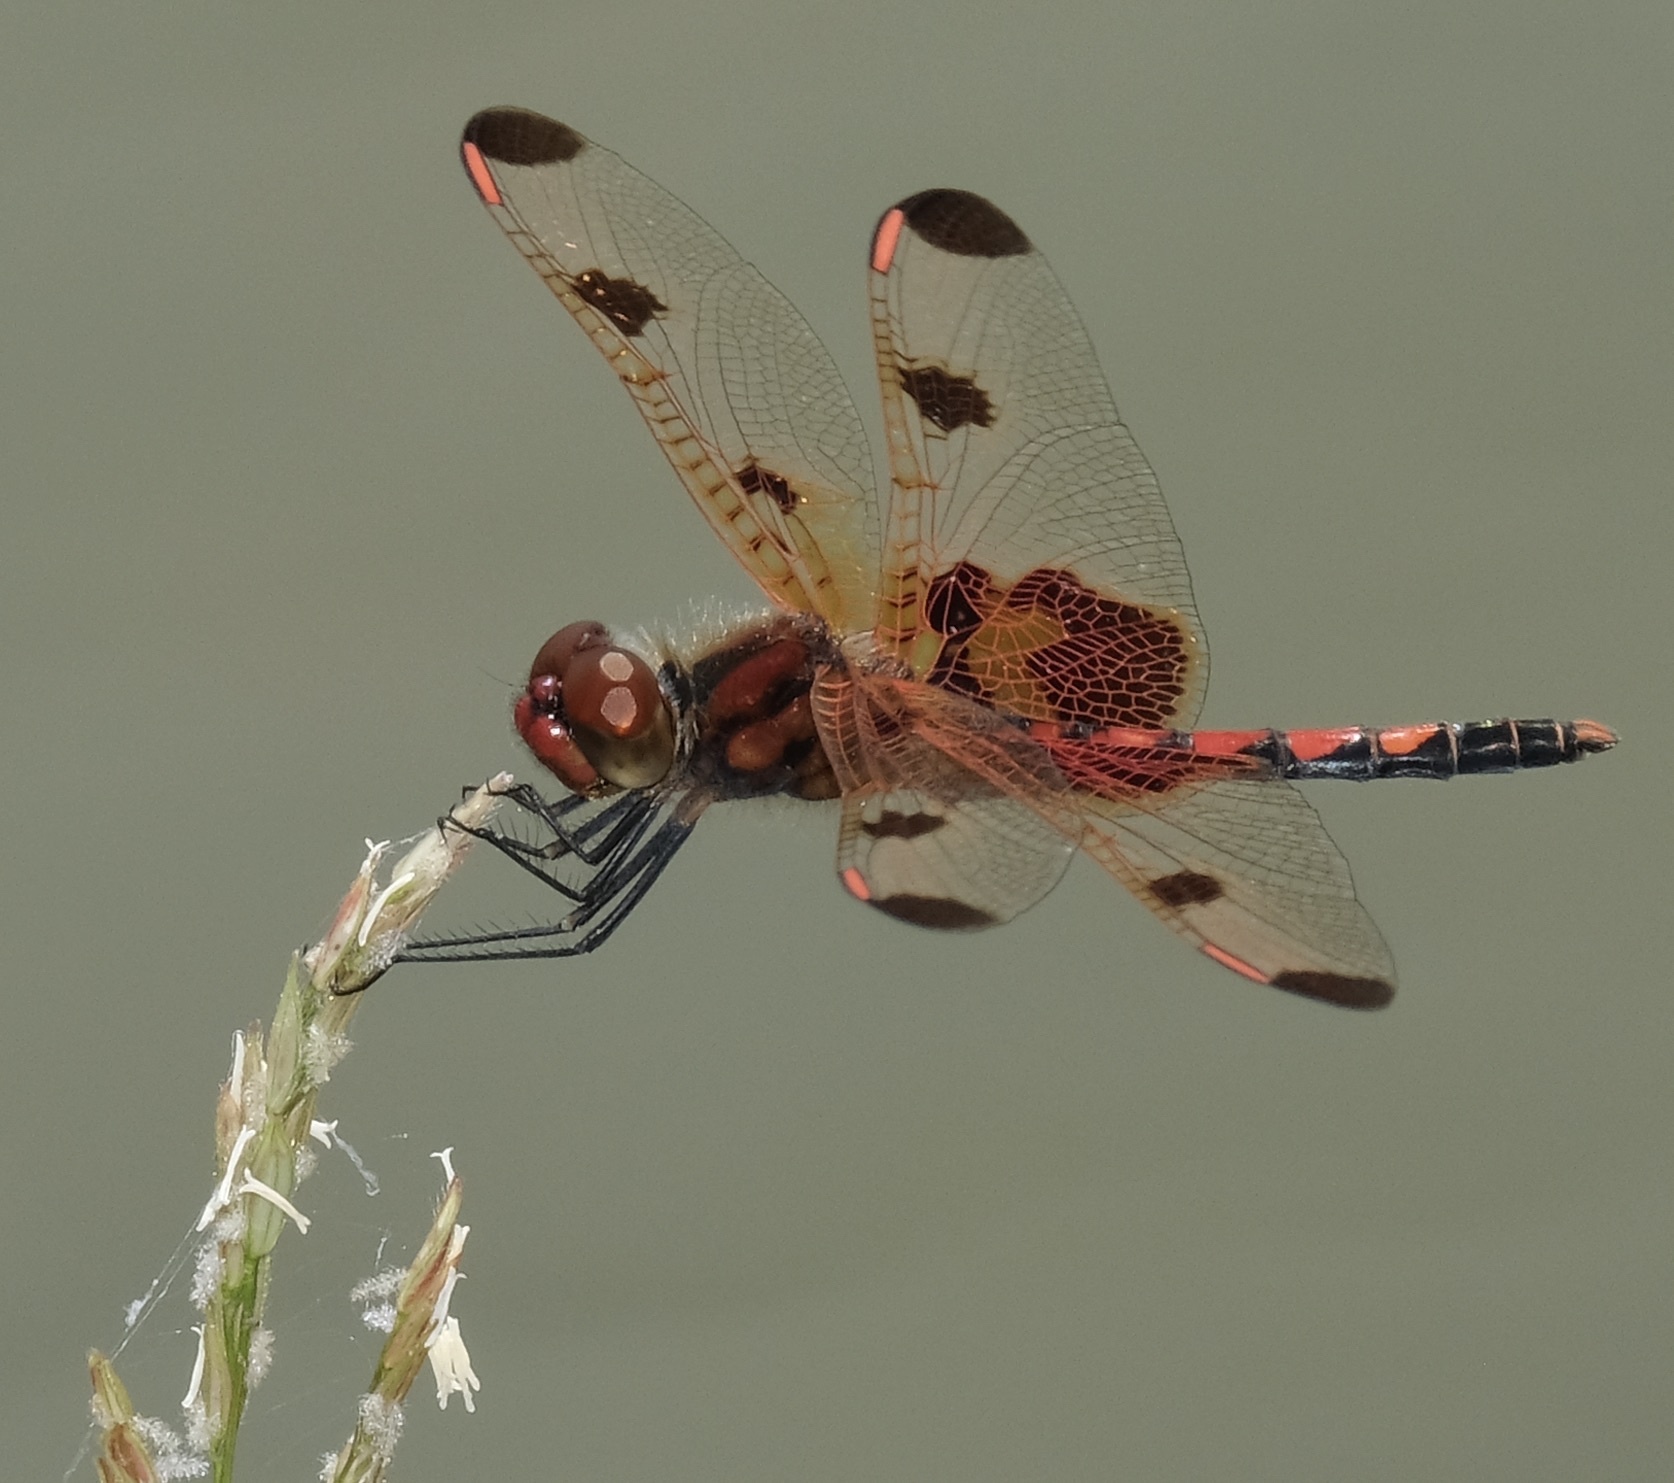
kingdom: Animalia
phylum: Arthropoda
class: Insecta
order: Odonata
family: Libellulidae
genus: Celithemis
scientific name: Celithemis elisa
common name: Calico pennant
